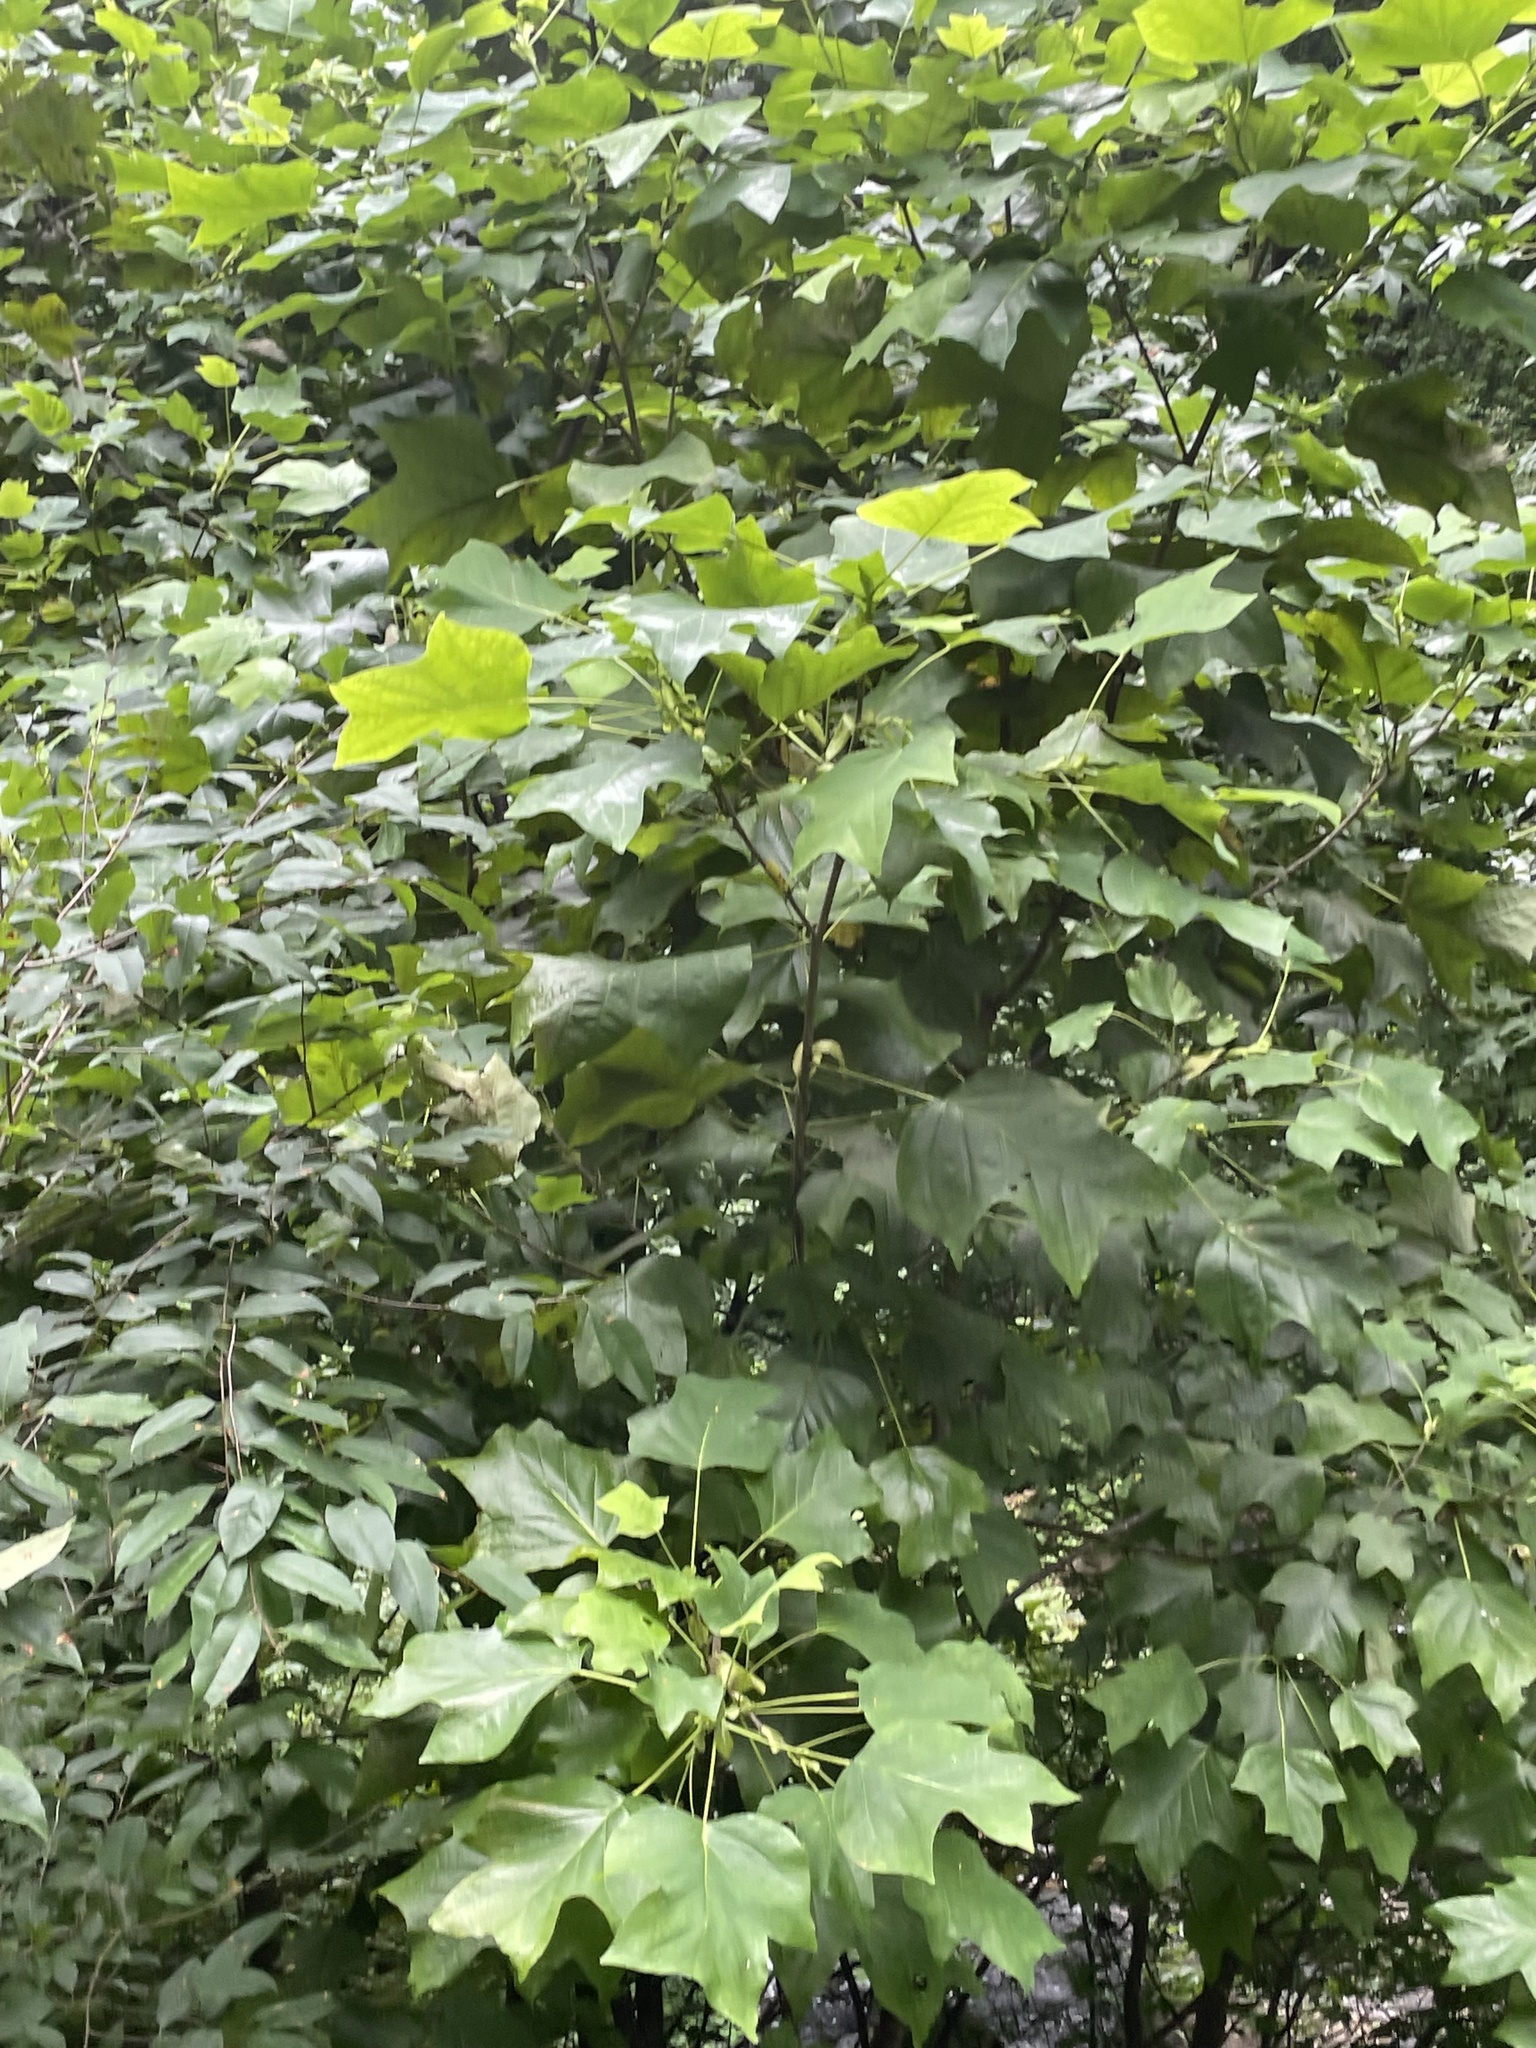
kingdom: Plantae
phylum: Tracheophyta
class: Magnoliopsida
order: Magnoliales
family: Magnoliaceae
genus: Liriodendron
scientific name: Liriodendron tulipifera
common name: Tulip tree
